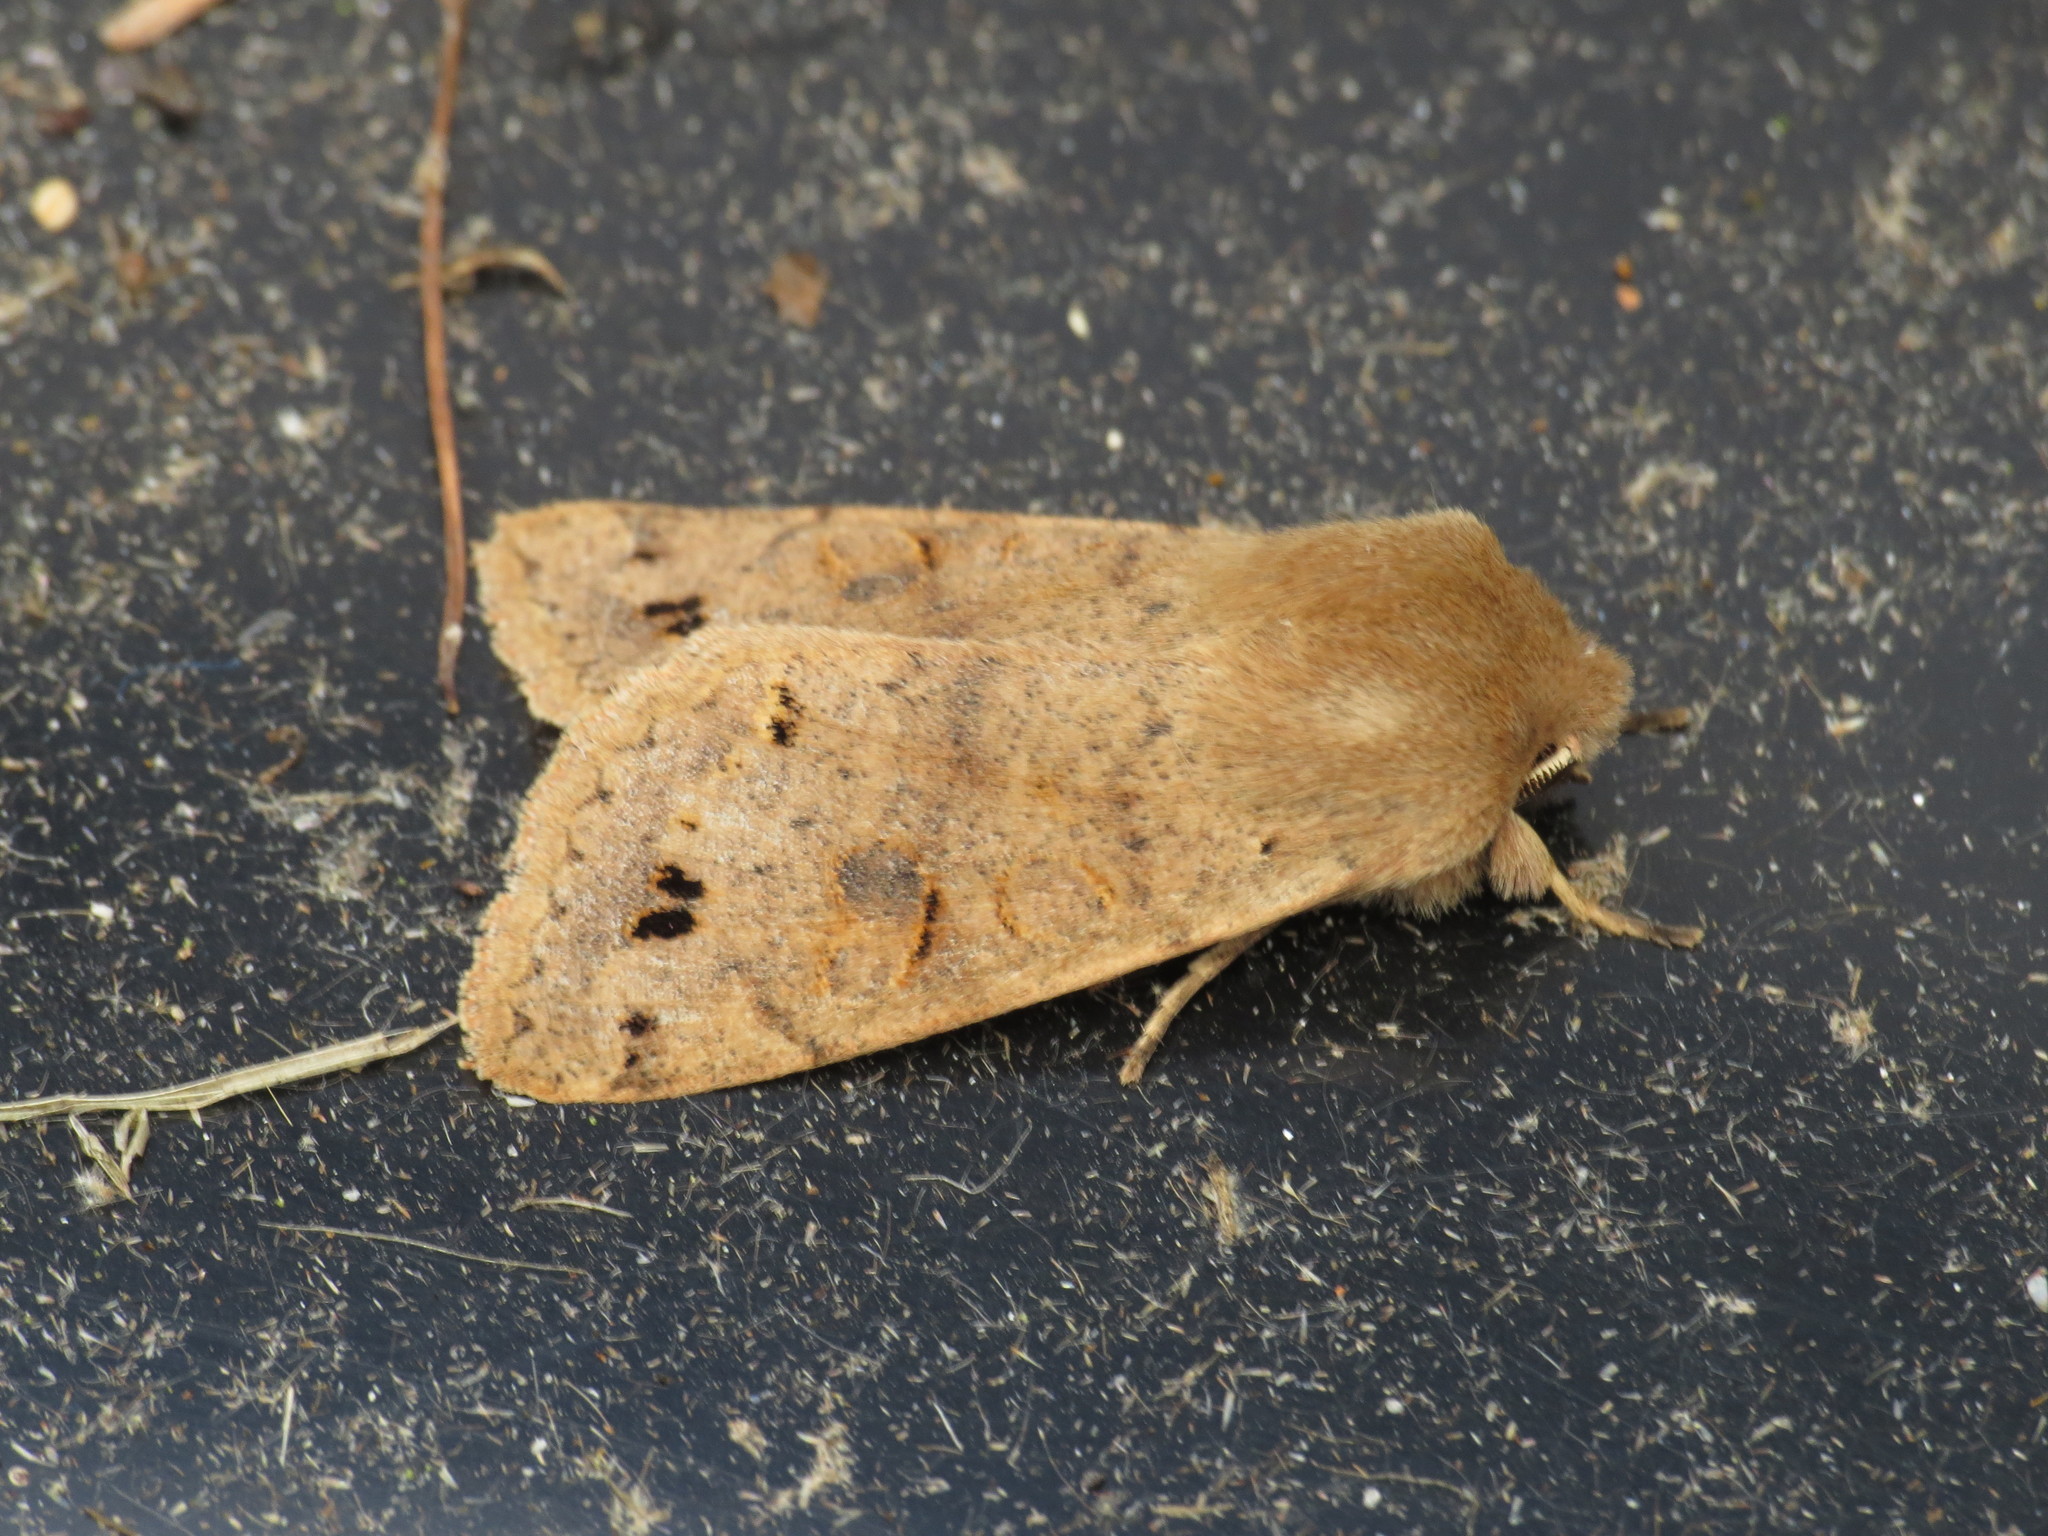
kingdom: Animalia
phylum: Arthropoda
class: Insecta
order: Lepidoptera
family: Noctuidae
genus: Anorthoa
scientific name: Anorthoa munda
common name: Twin-spotted quaker
